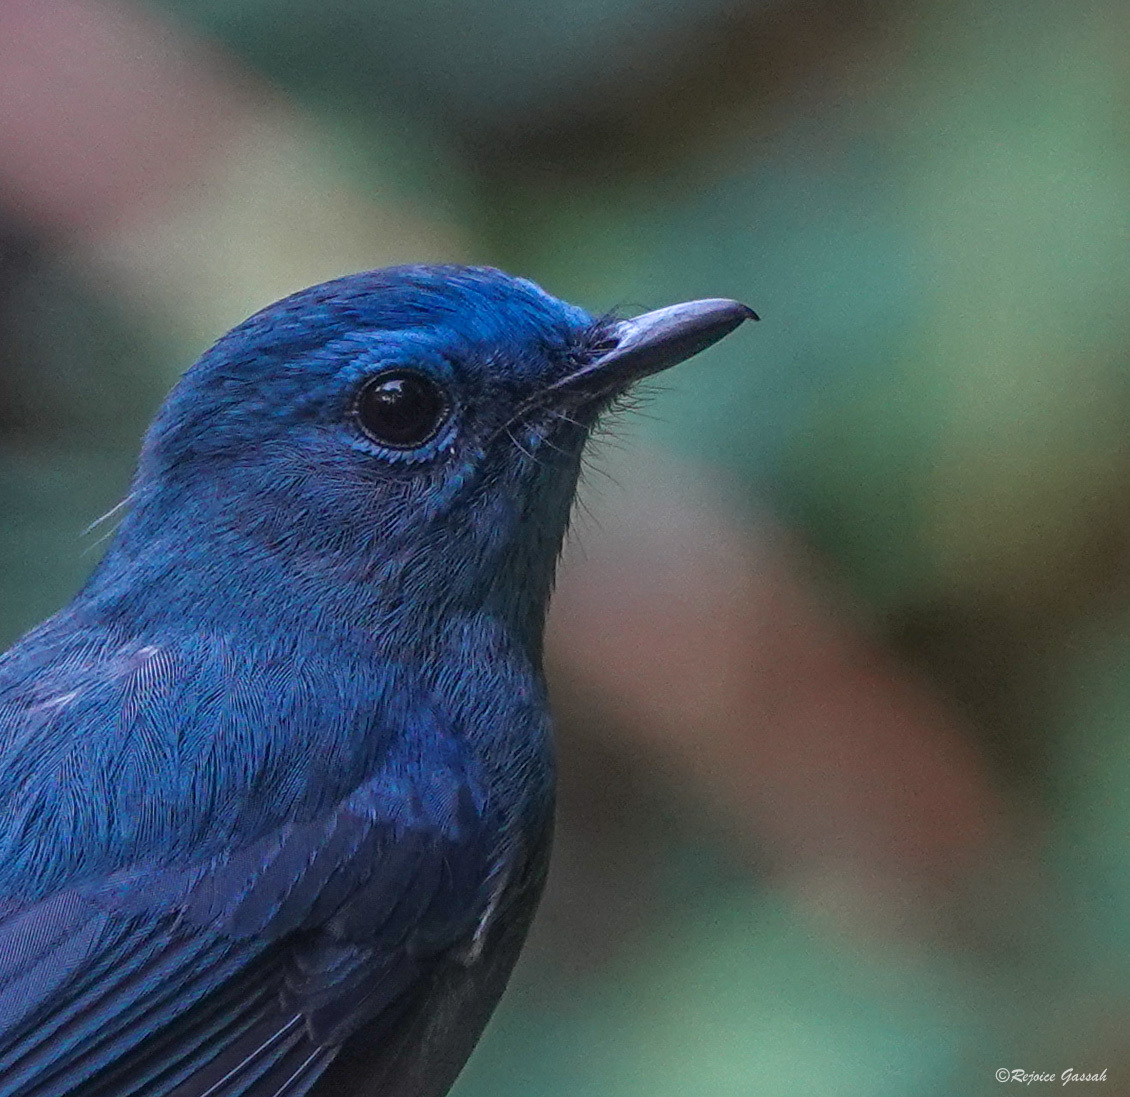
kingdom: Animalia
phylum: Chordata
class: Aves
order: Passeriformes
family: Muscicapidae
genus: Cyornis
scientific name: Cyornis unicolor
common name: Pale blue flycatcher
